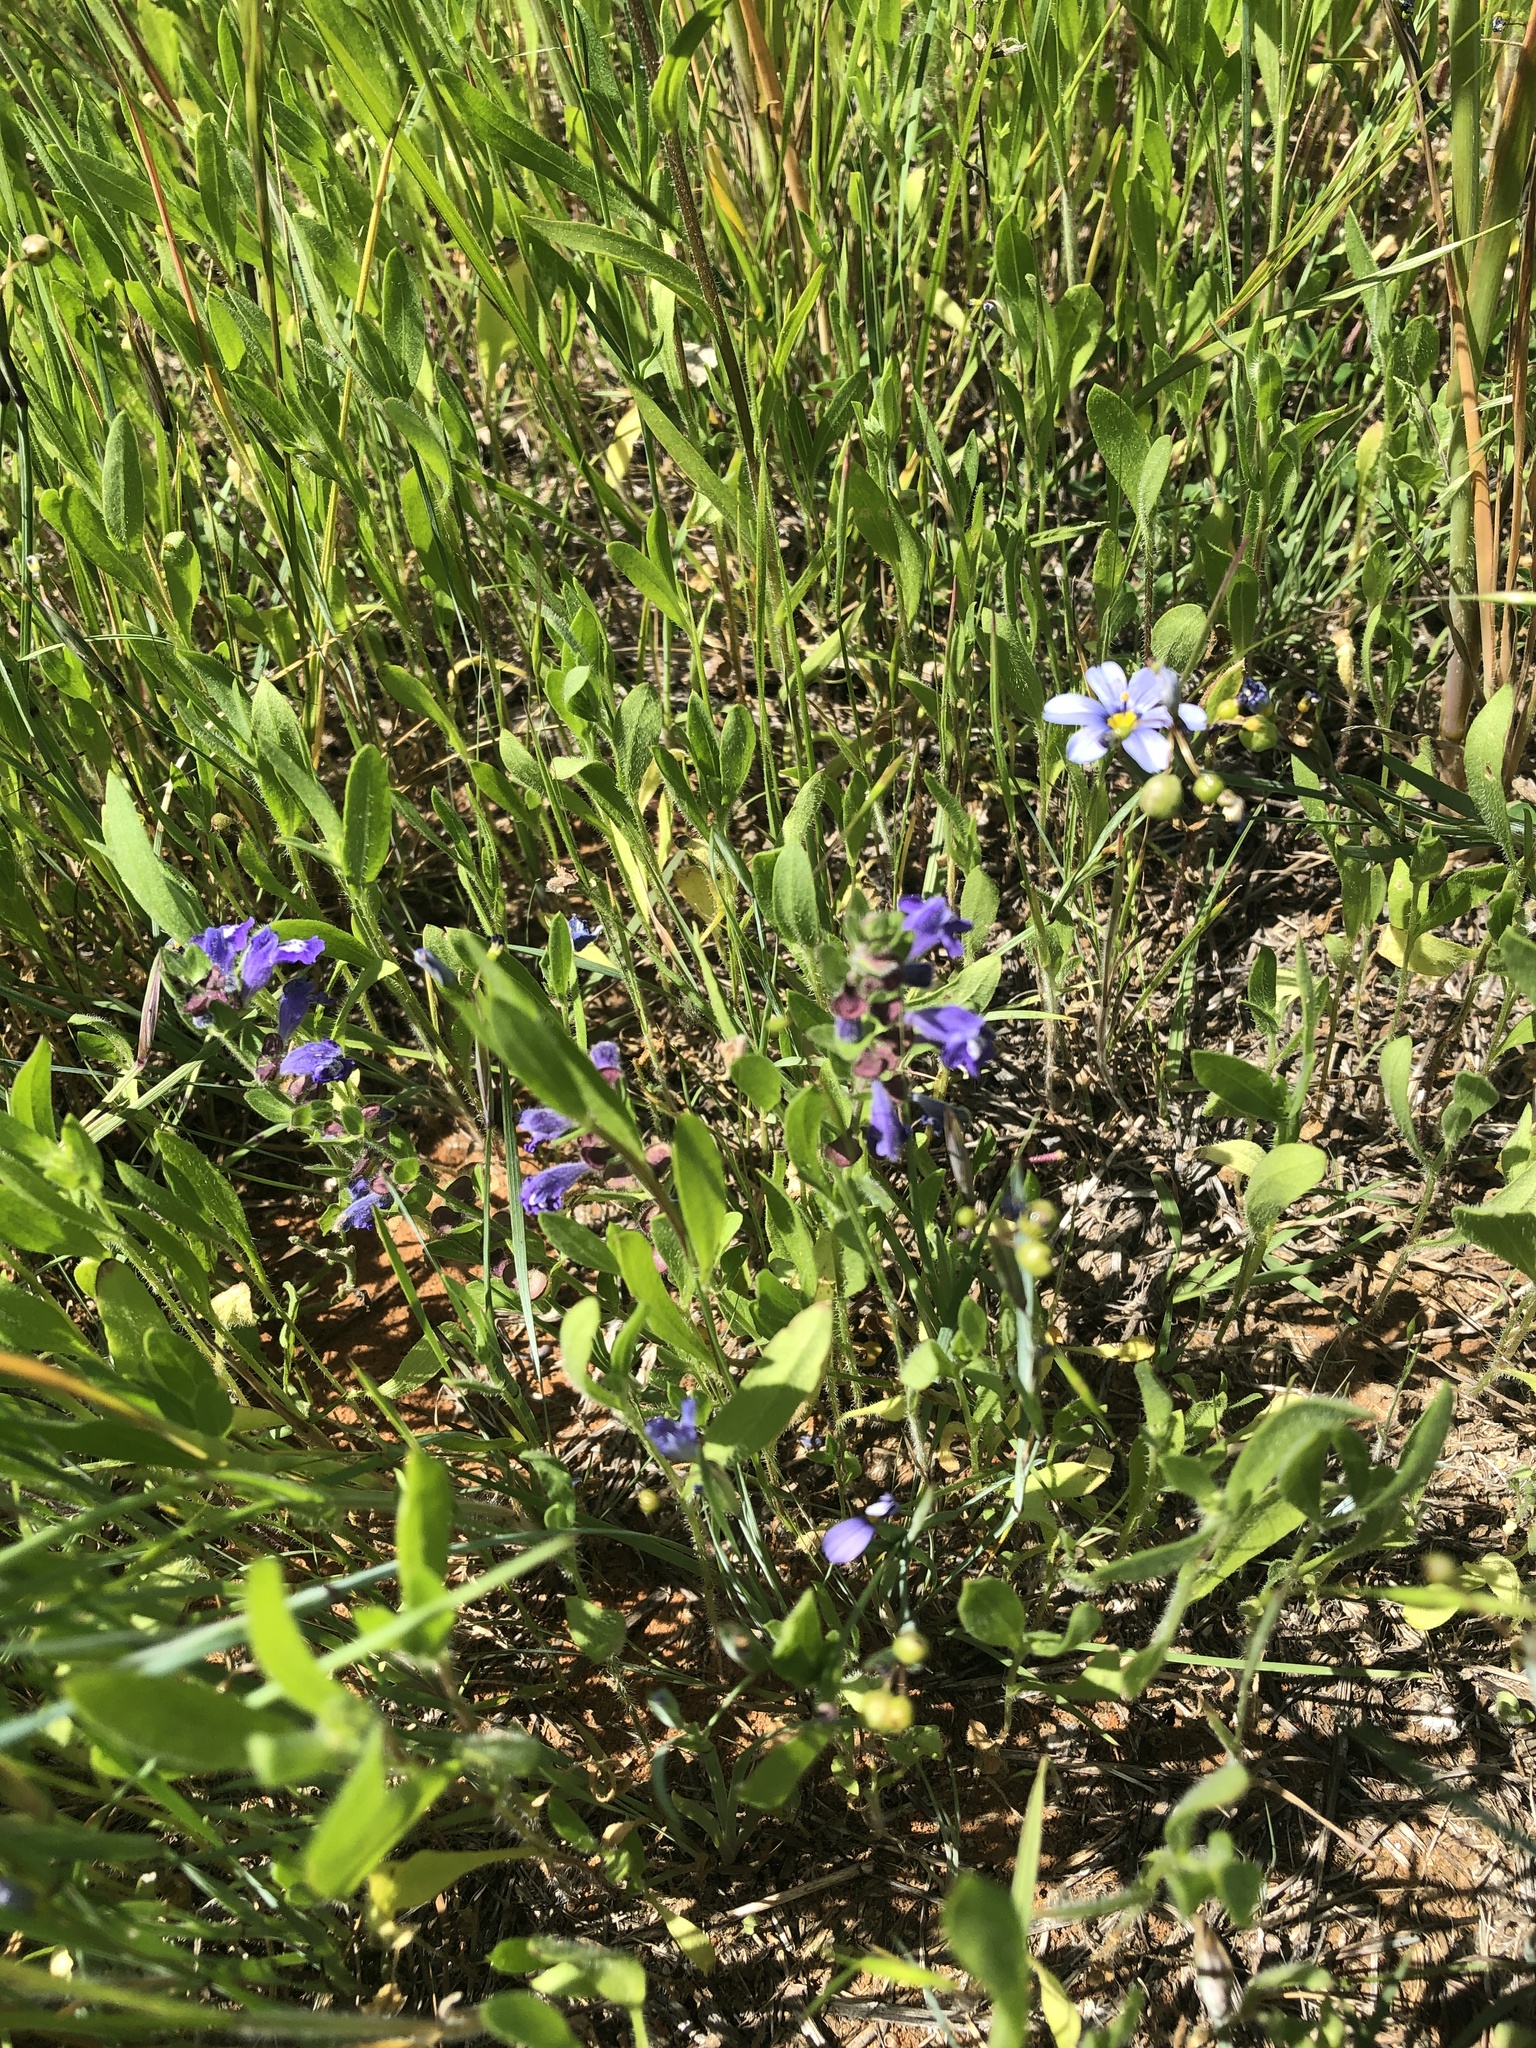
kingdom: Plantae
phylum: Tracheophyta
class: Magnoliopsida
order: Lamiales
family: Lamiaceae
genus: Scutellaria
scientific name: Scutellaria drummondii
